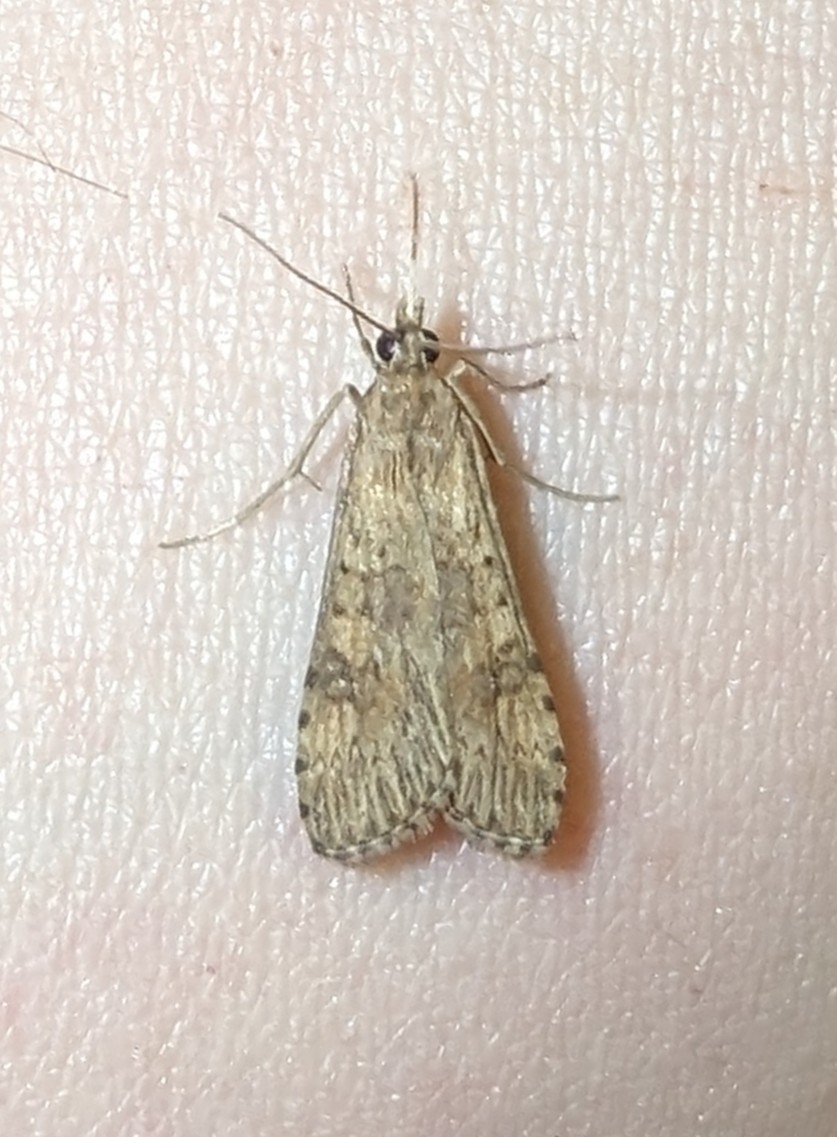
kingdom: Animalia
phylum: Arthropoda
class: Insecta
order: Lepidoptera
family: Crambidae
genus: Nomophila
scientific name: Nomophila nearctica
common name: American rush veneer
